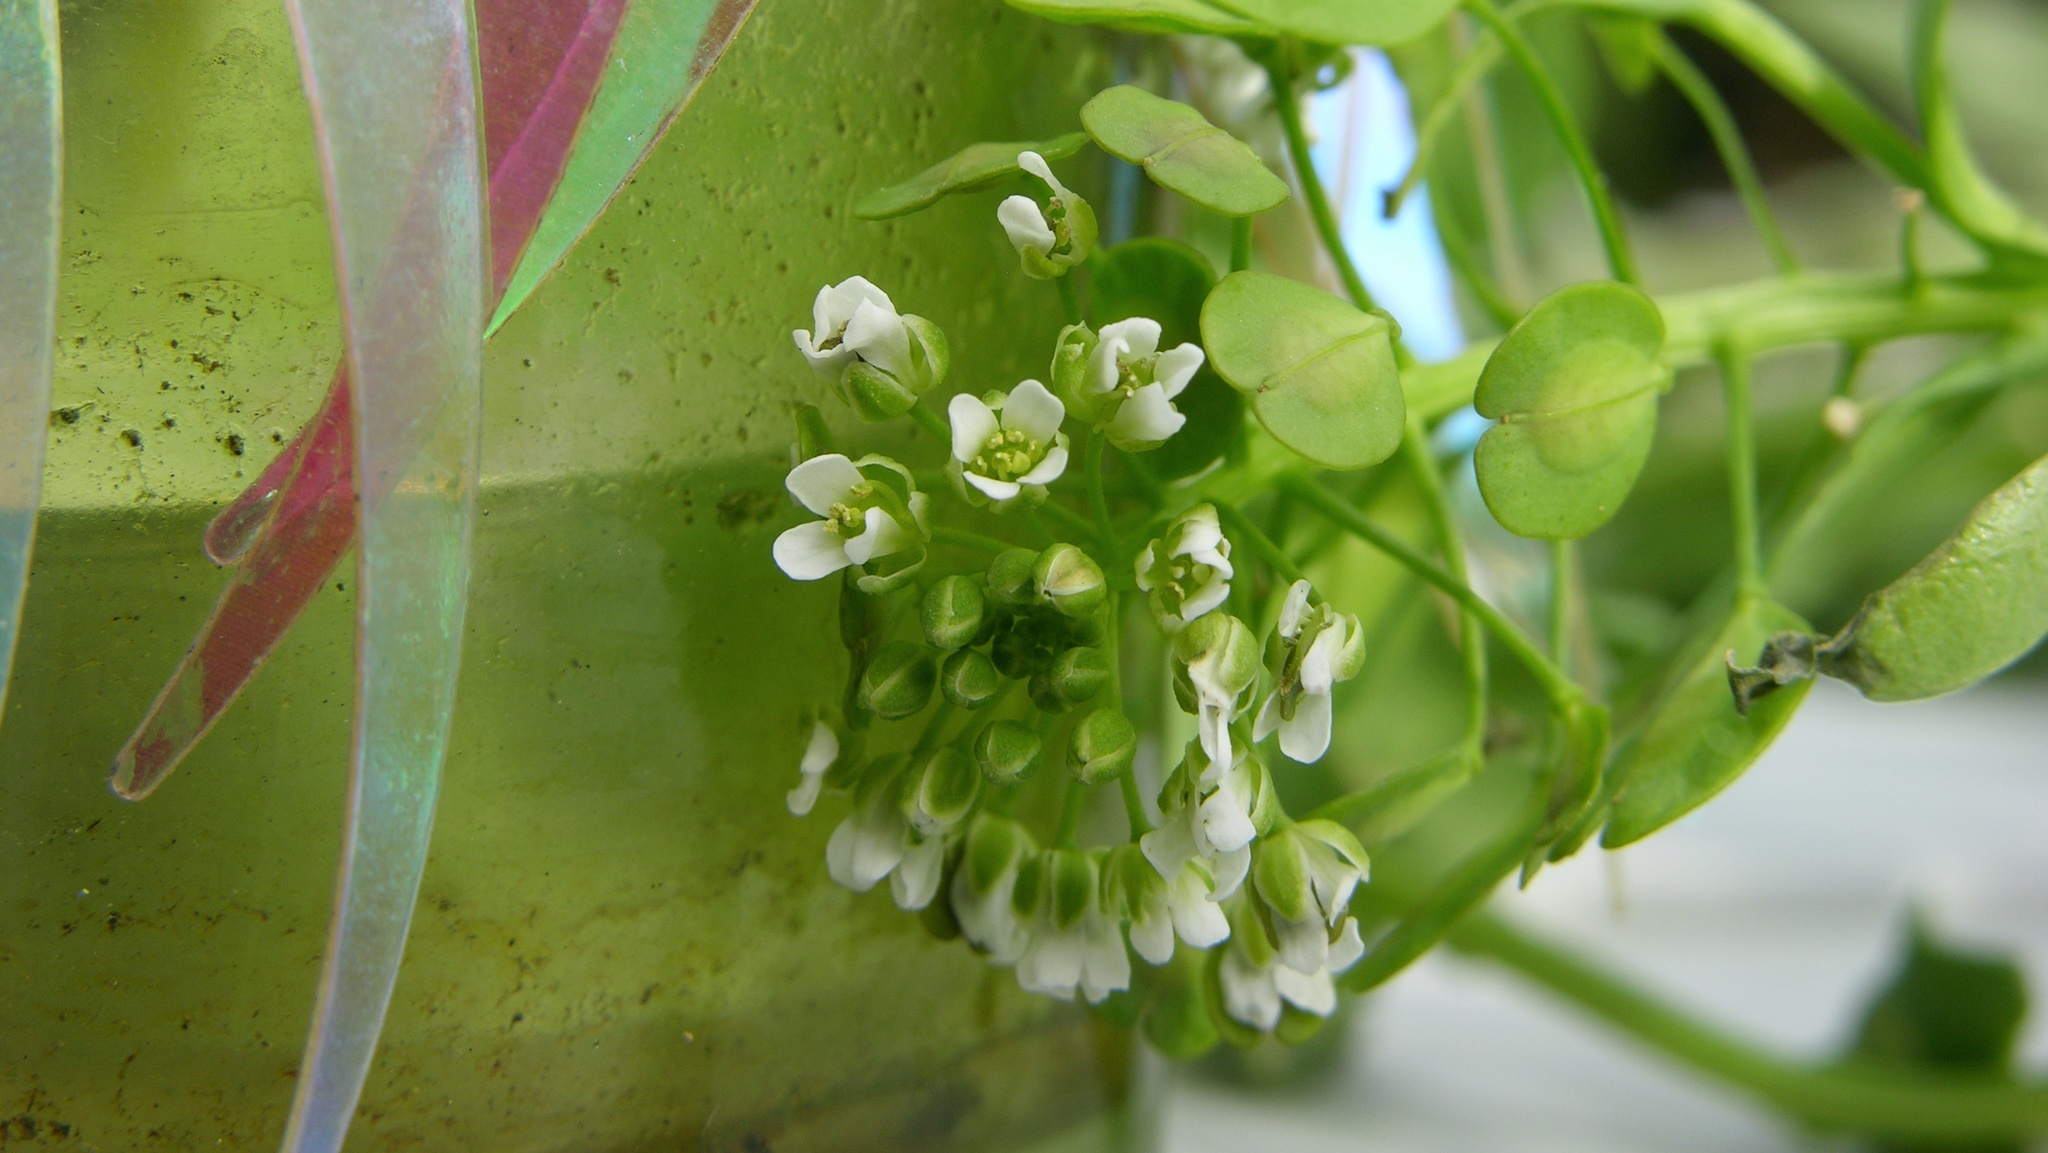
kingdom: Plantae
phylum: Tracheophyta
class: Magnoliopsida
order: Brassicales
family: Brassicaceae
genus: Thlaspi
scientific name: Thlaspi arvense
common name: Field pennycress
